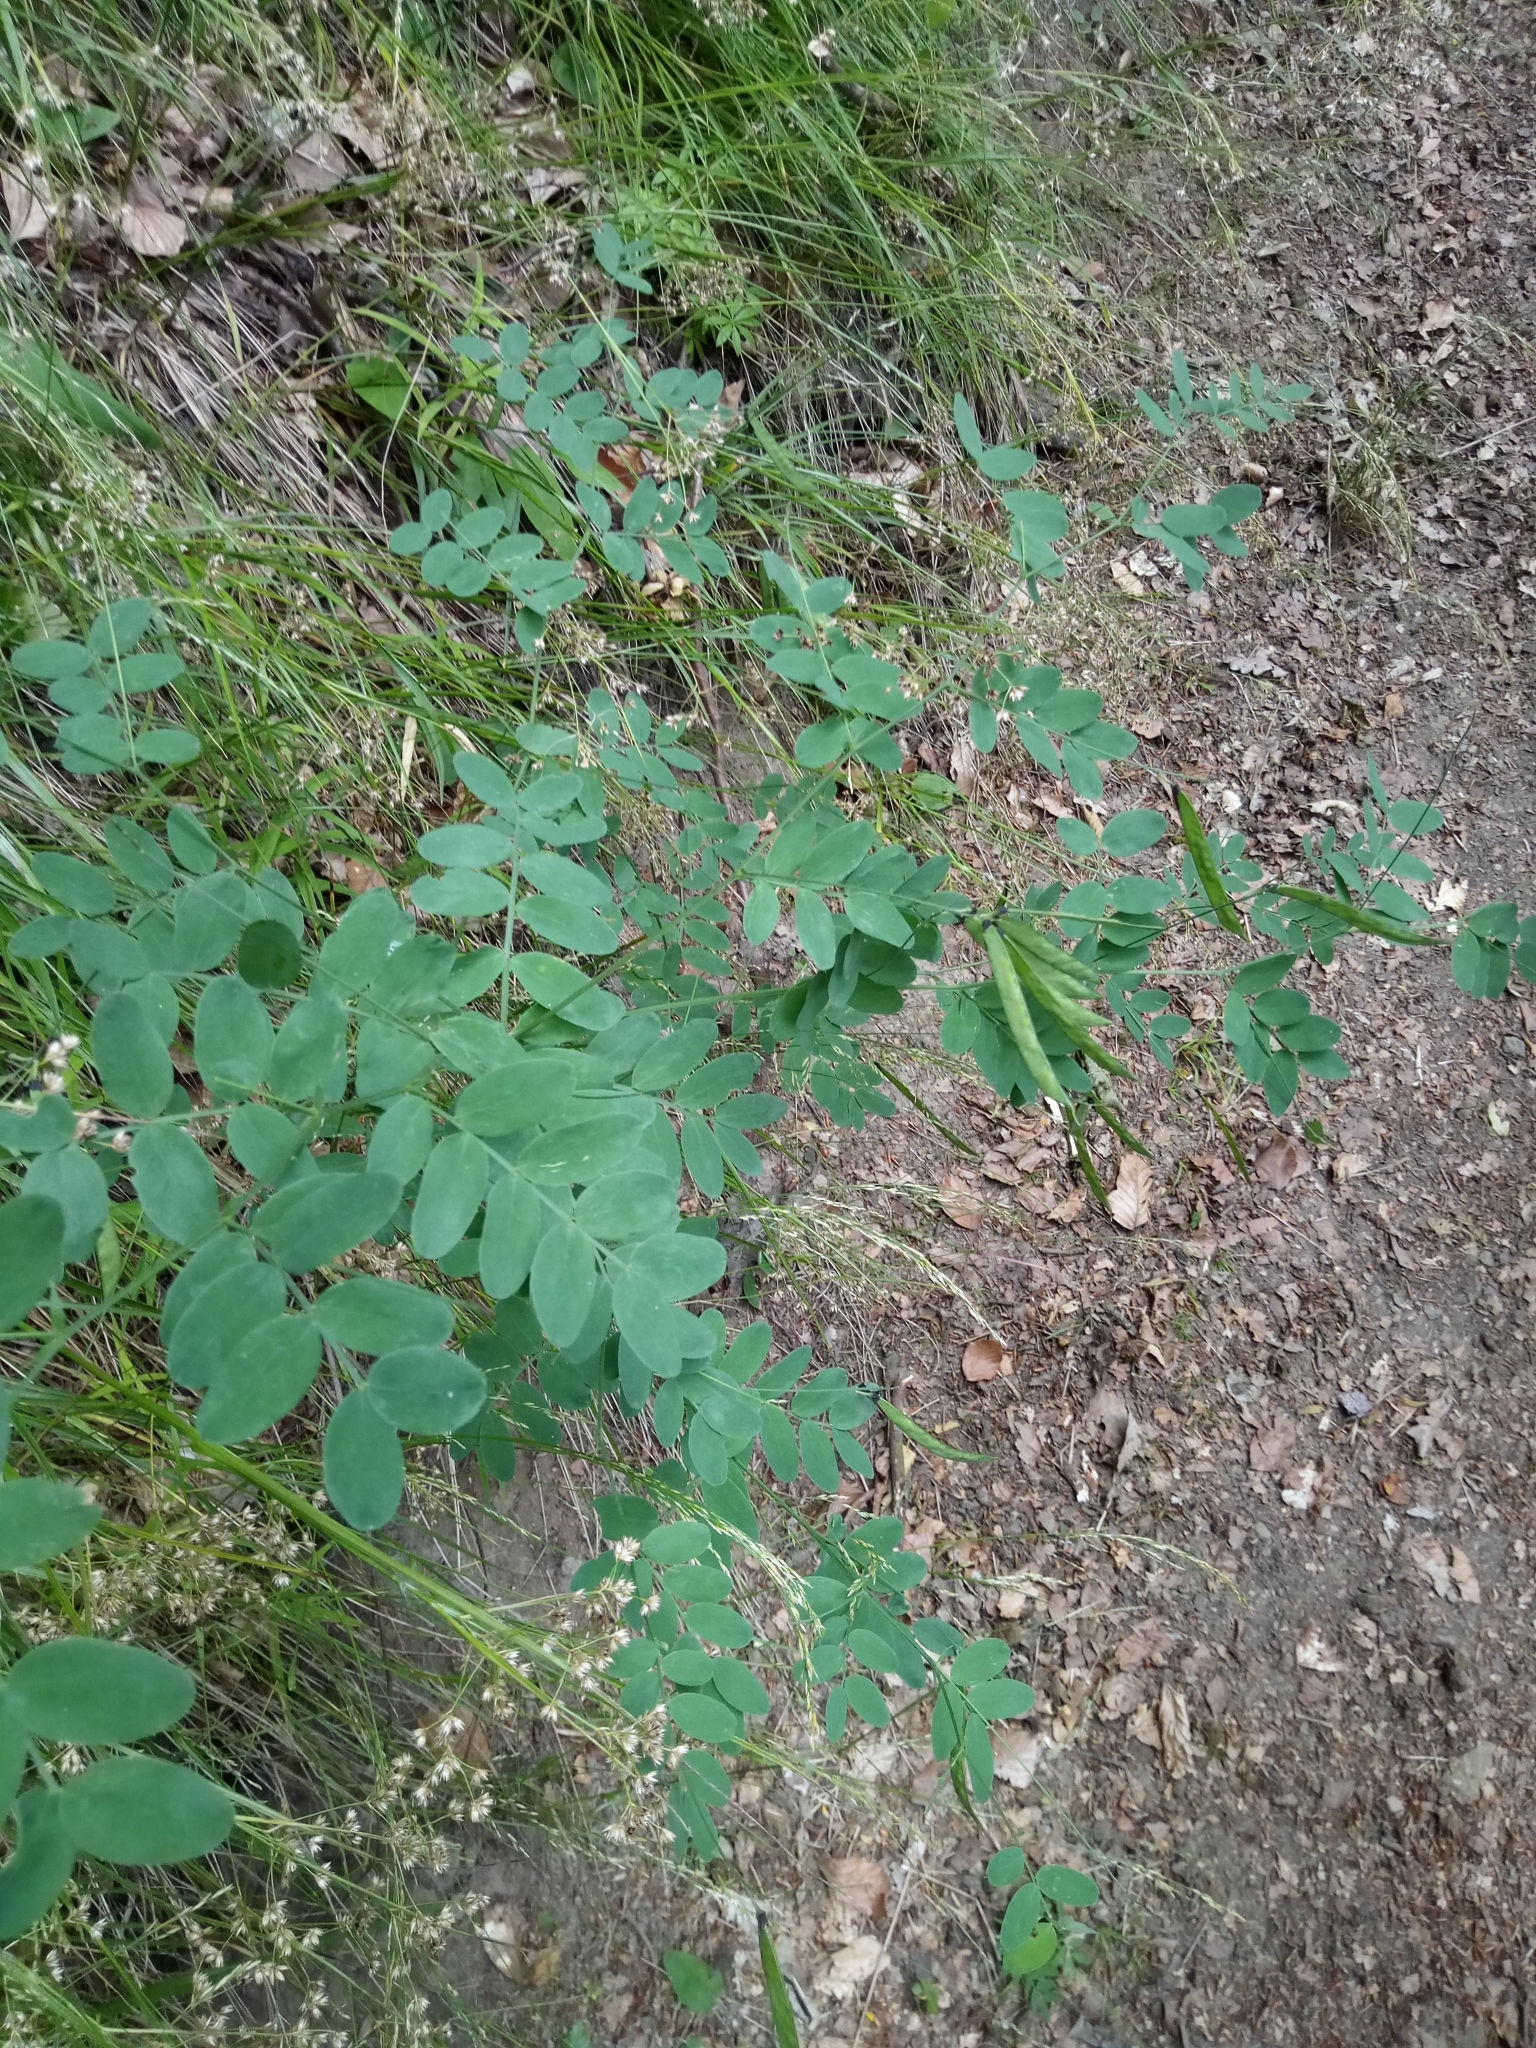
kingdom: Plantae
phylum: Tracheophyta
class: Magnoliopsida
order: Fabales
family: Fabaceae
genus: Lathyrus
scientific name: Lathyrus niger
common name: Black pea
